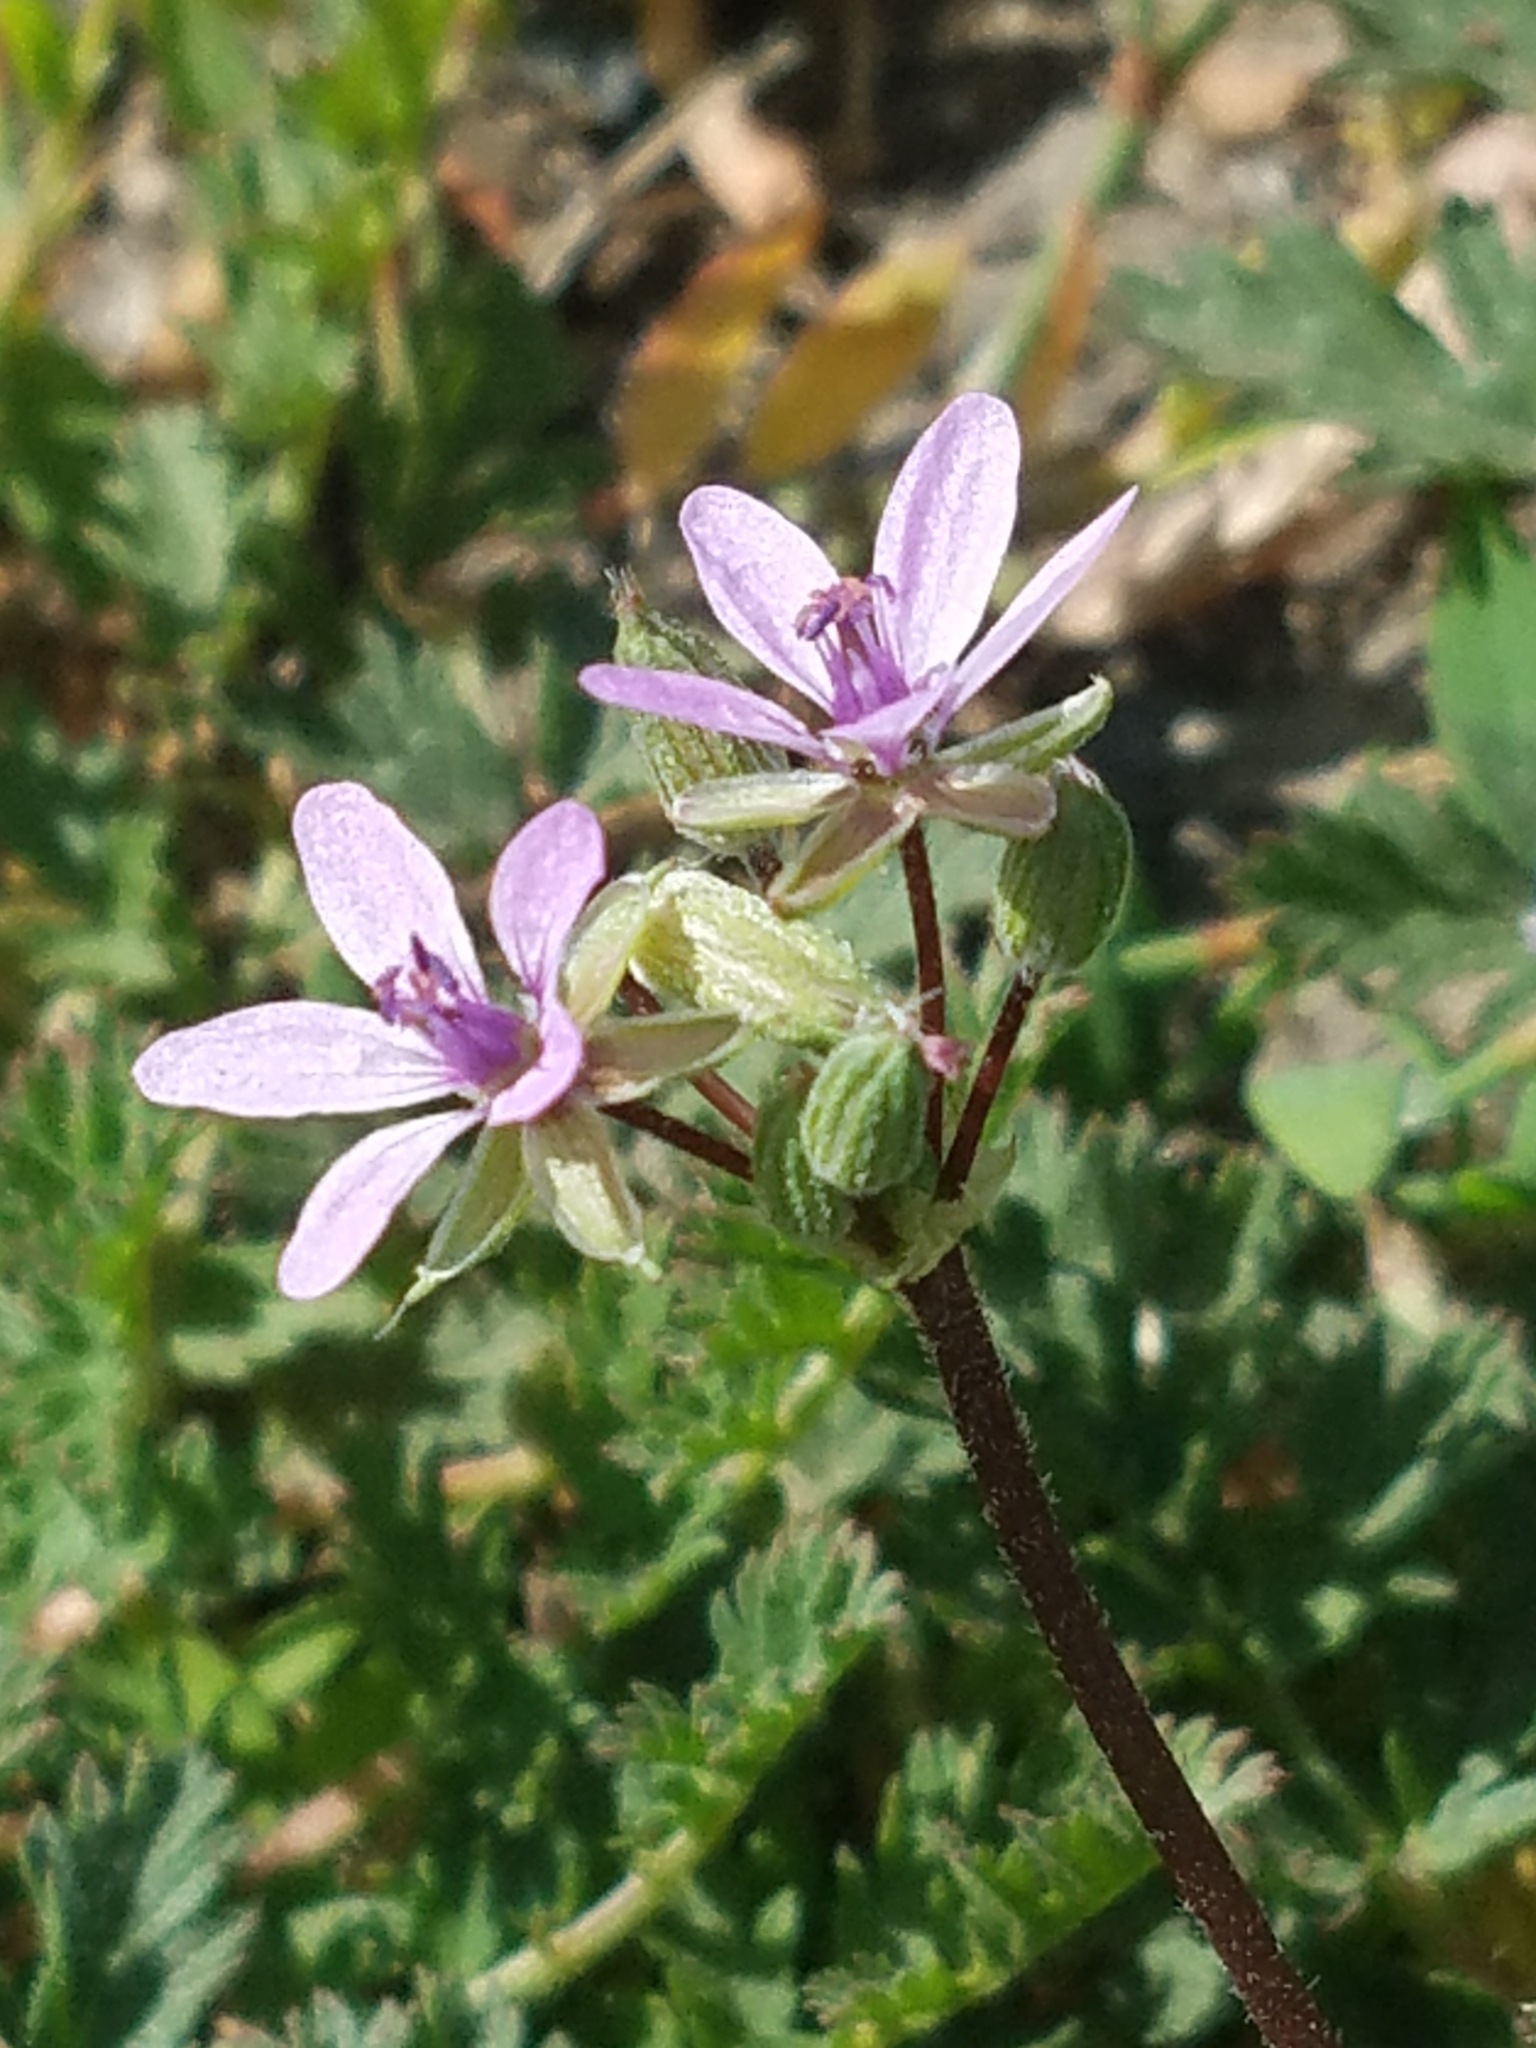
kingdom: Plantae
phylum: Tracheophyta
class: Magnoliopsida
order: Geraniales
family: Geraniaceae
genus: Erodium
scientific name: Erodium cicutarium
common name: Common stork's-bill
